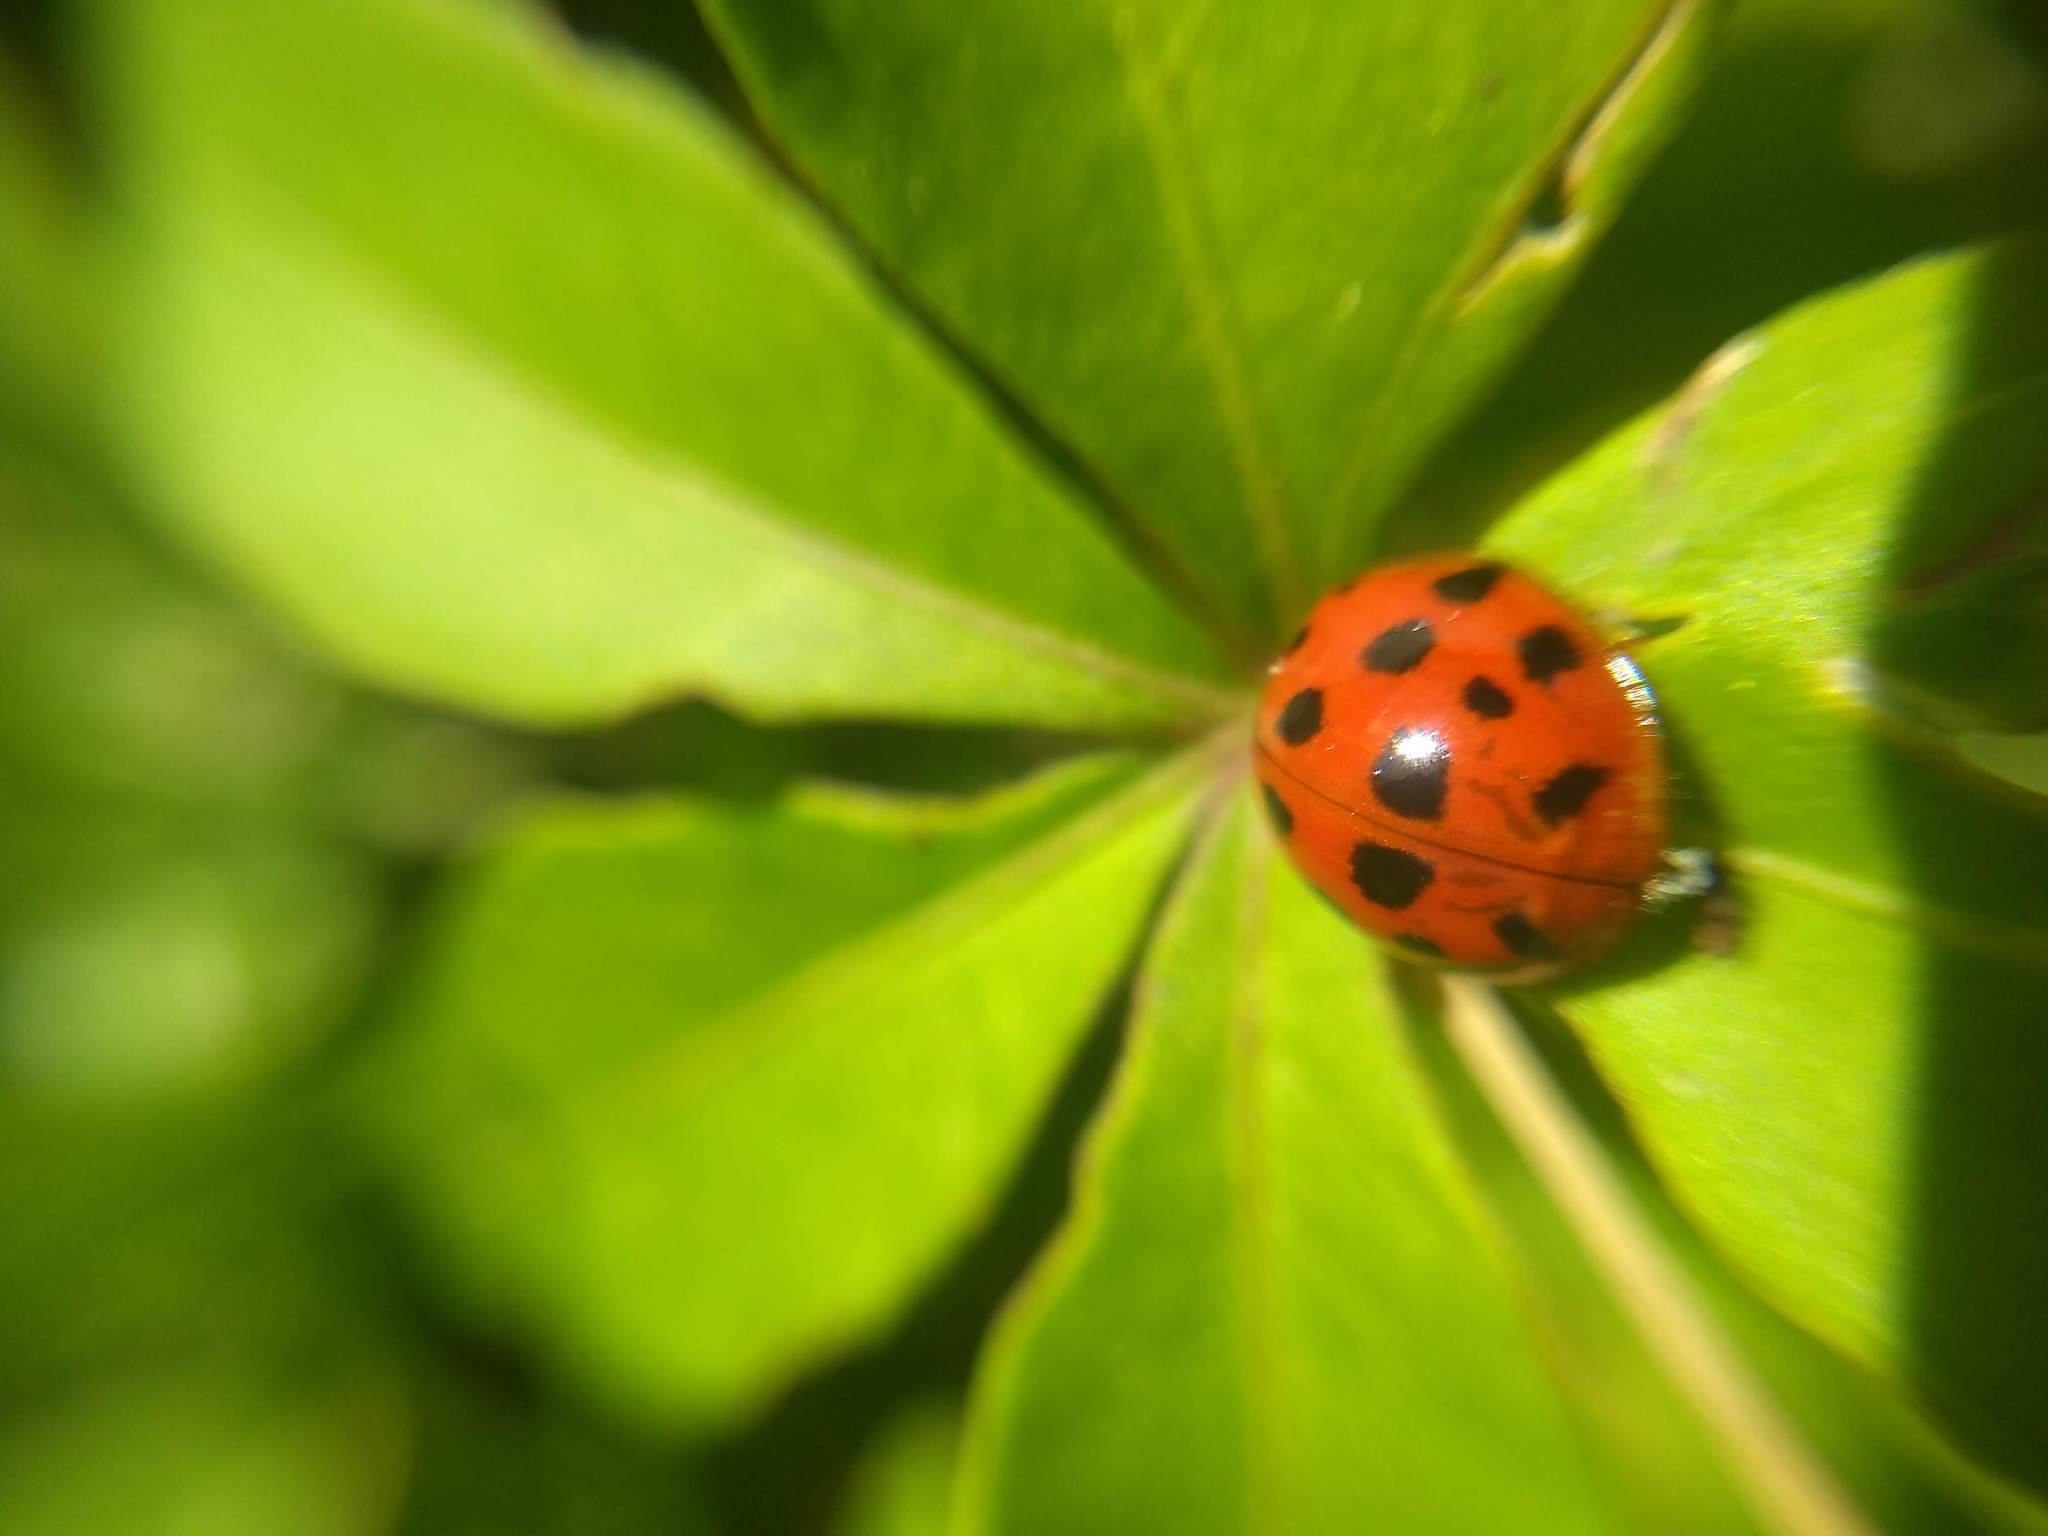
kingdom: Animalia
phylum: Arthropoda
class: Insecta
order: Coleoptera
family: Coccinellidae
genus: Harmonia
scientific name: Harmonia axyridis
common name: Harlequin ladybird
